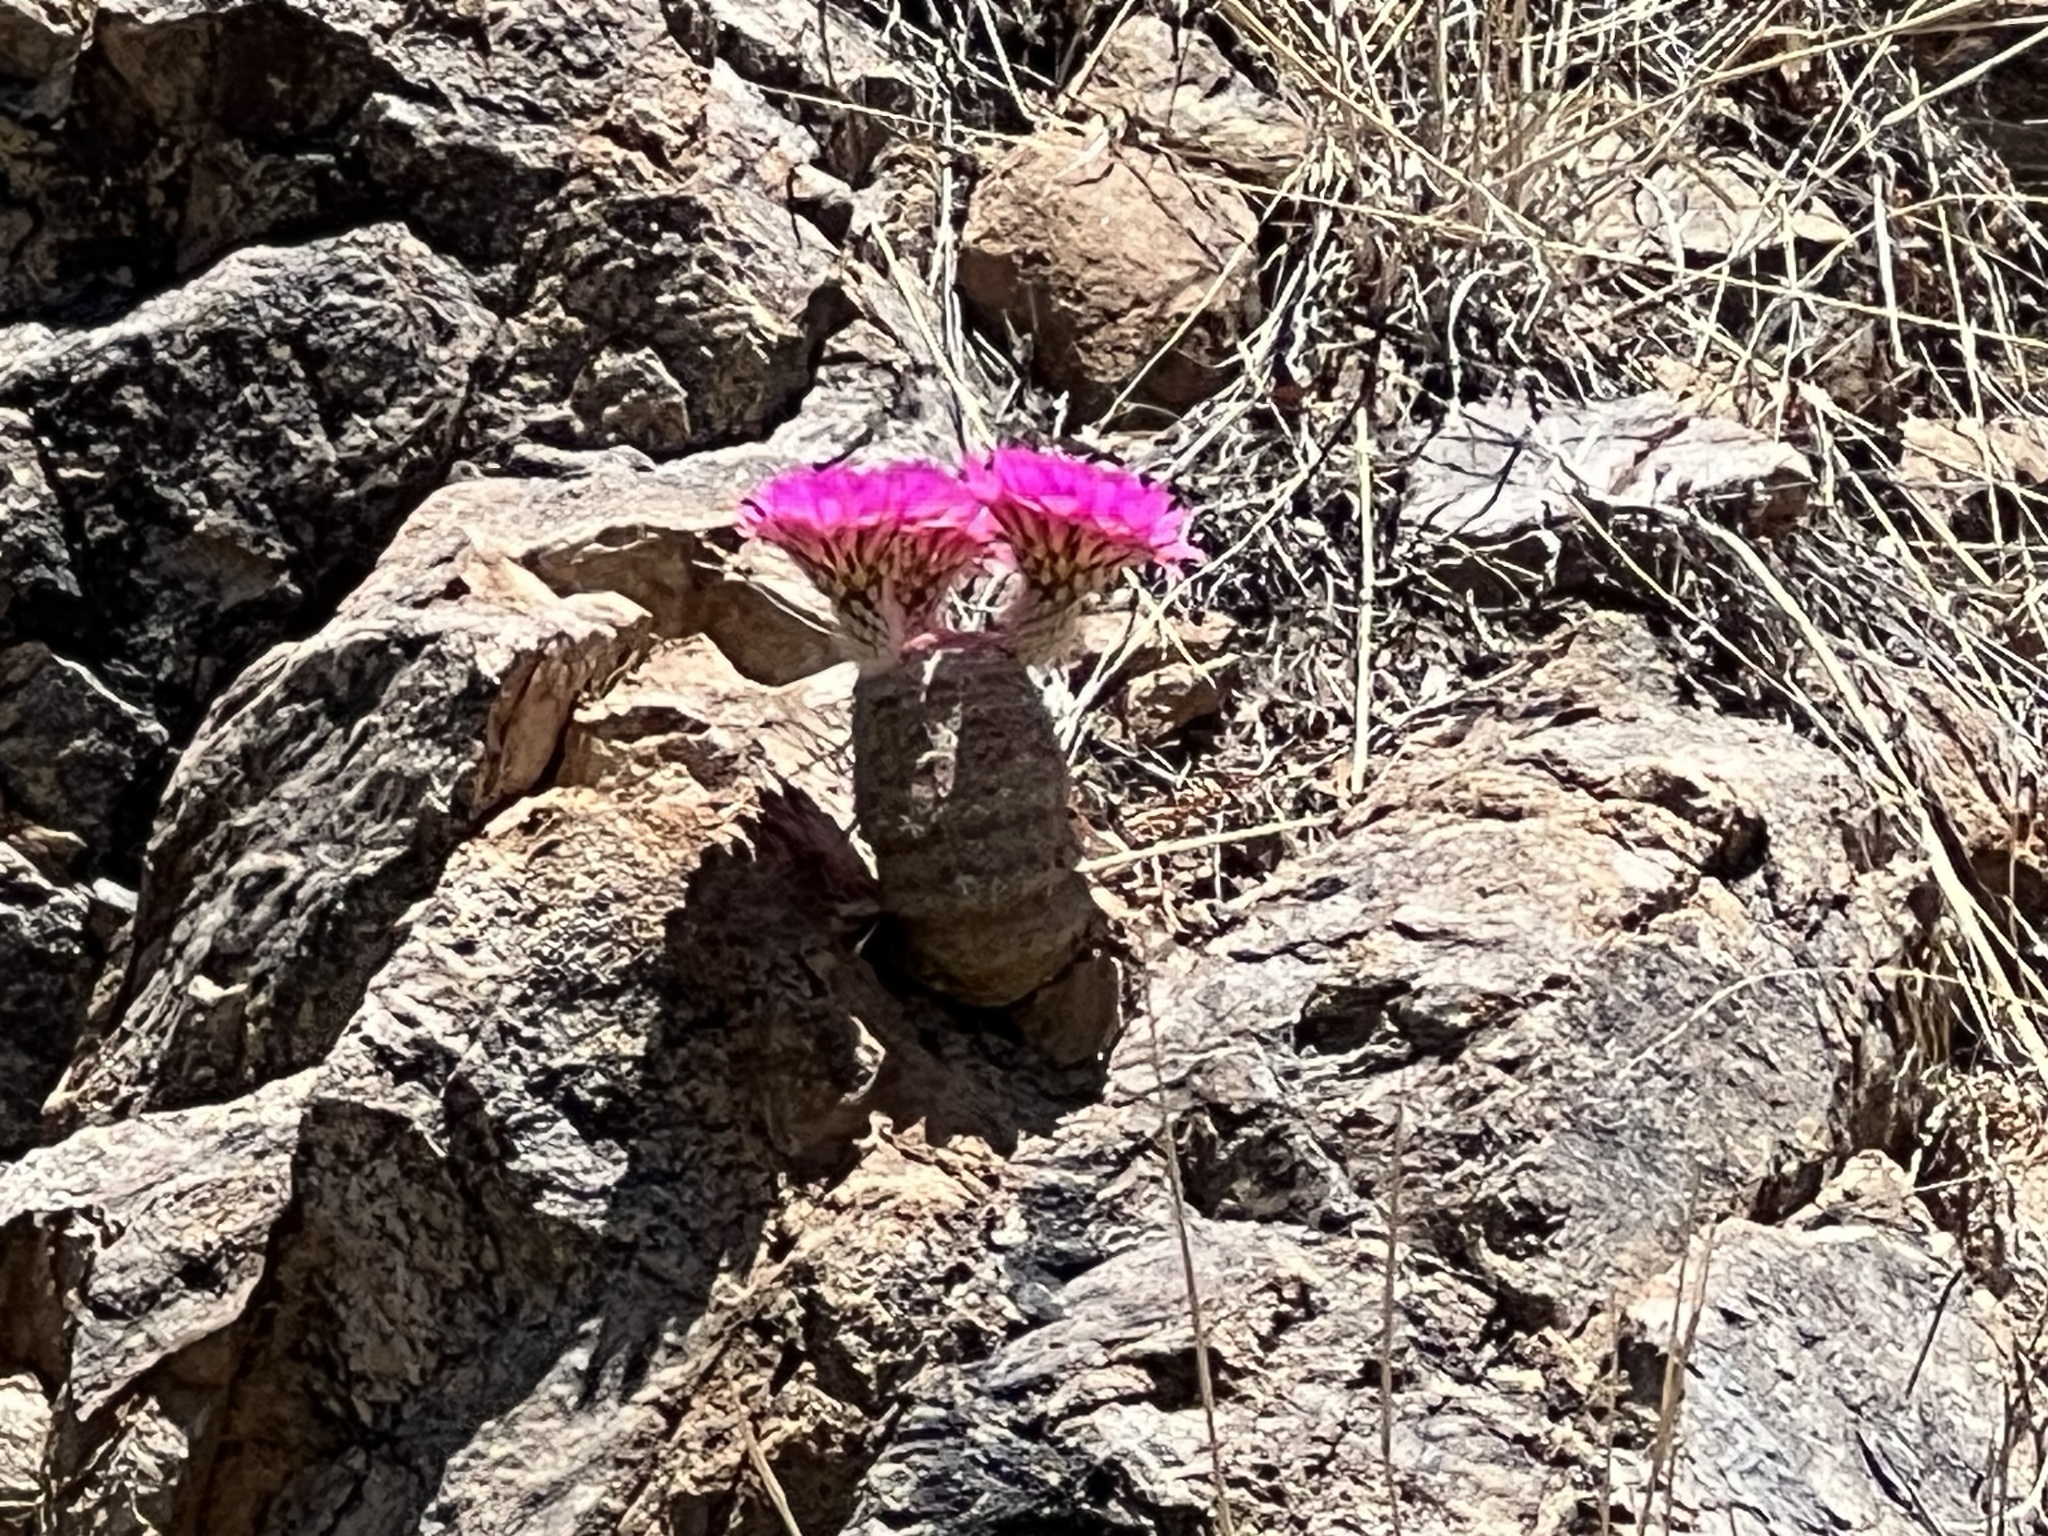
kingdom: Plantae
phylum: Tracheophyta
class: Magnoliopsida
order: Caryophyllales
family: Cactaceae
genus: Echinocereus
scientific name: Echinocereus rigidissimus
